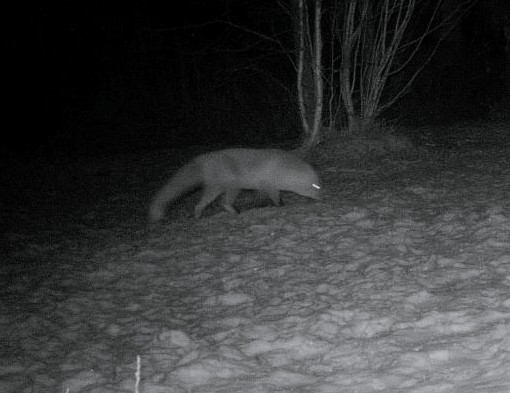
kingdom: Animalia
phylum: Chordata
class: Mammalia
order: Carnivora
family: Canidae
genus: Vulpes
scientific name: Vulpes vulpes
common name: Red fox
